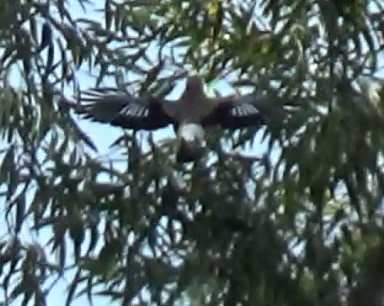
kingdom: Animalia
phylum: Chordata
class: Aves
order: Passeriformes
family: Corvidae
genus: Garrulus
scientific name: Garrulus glandarius
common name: Eurasian jay
